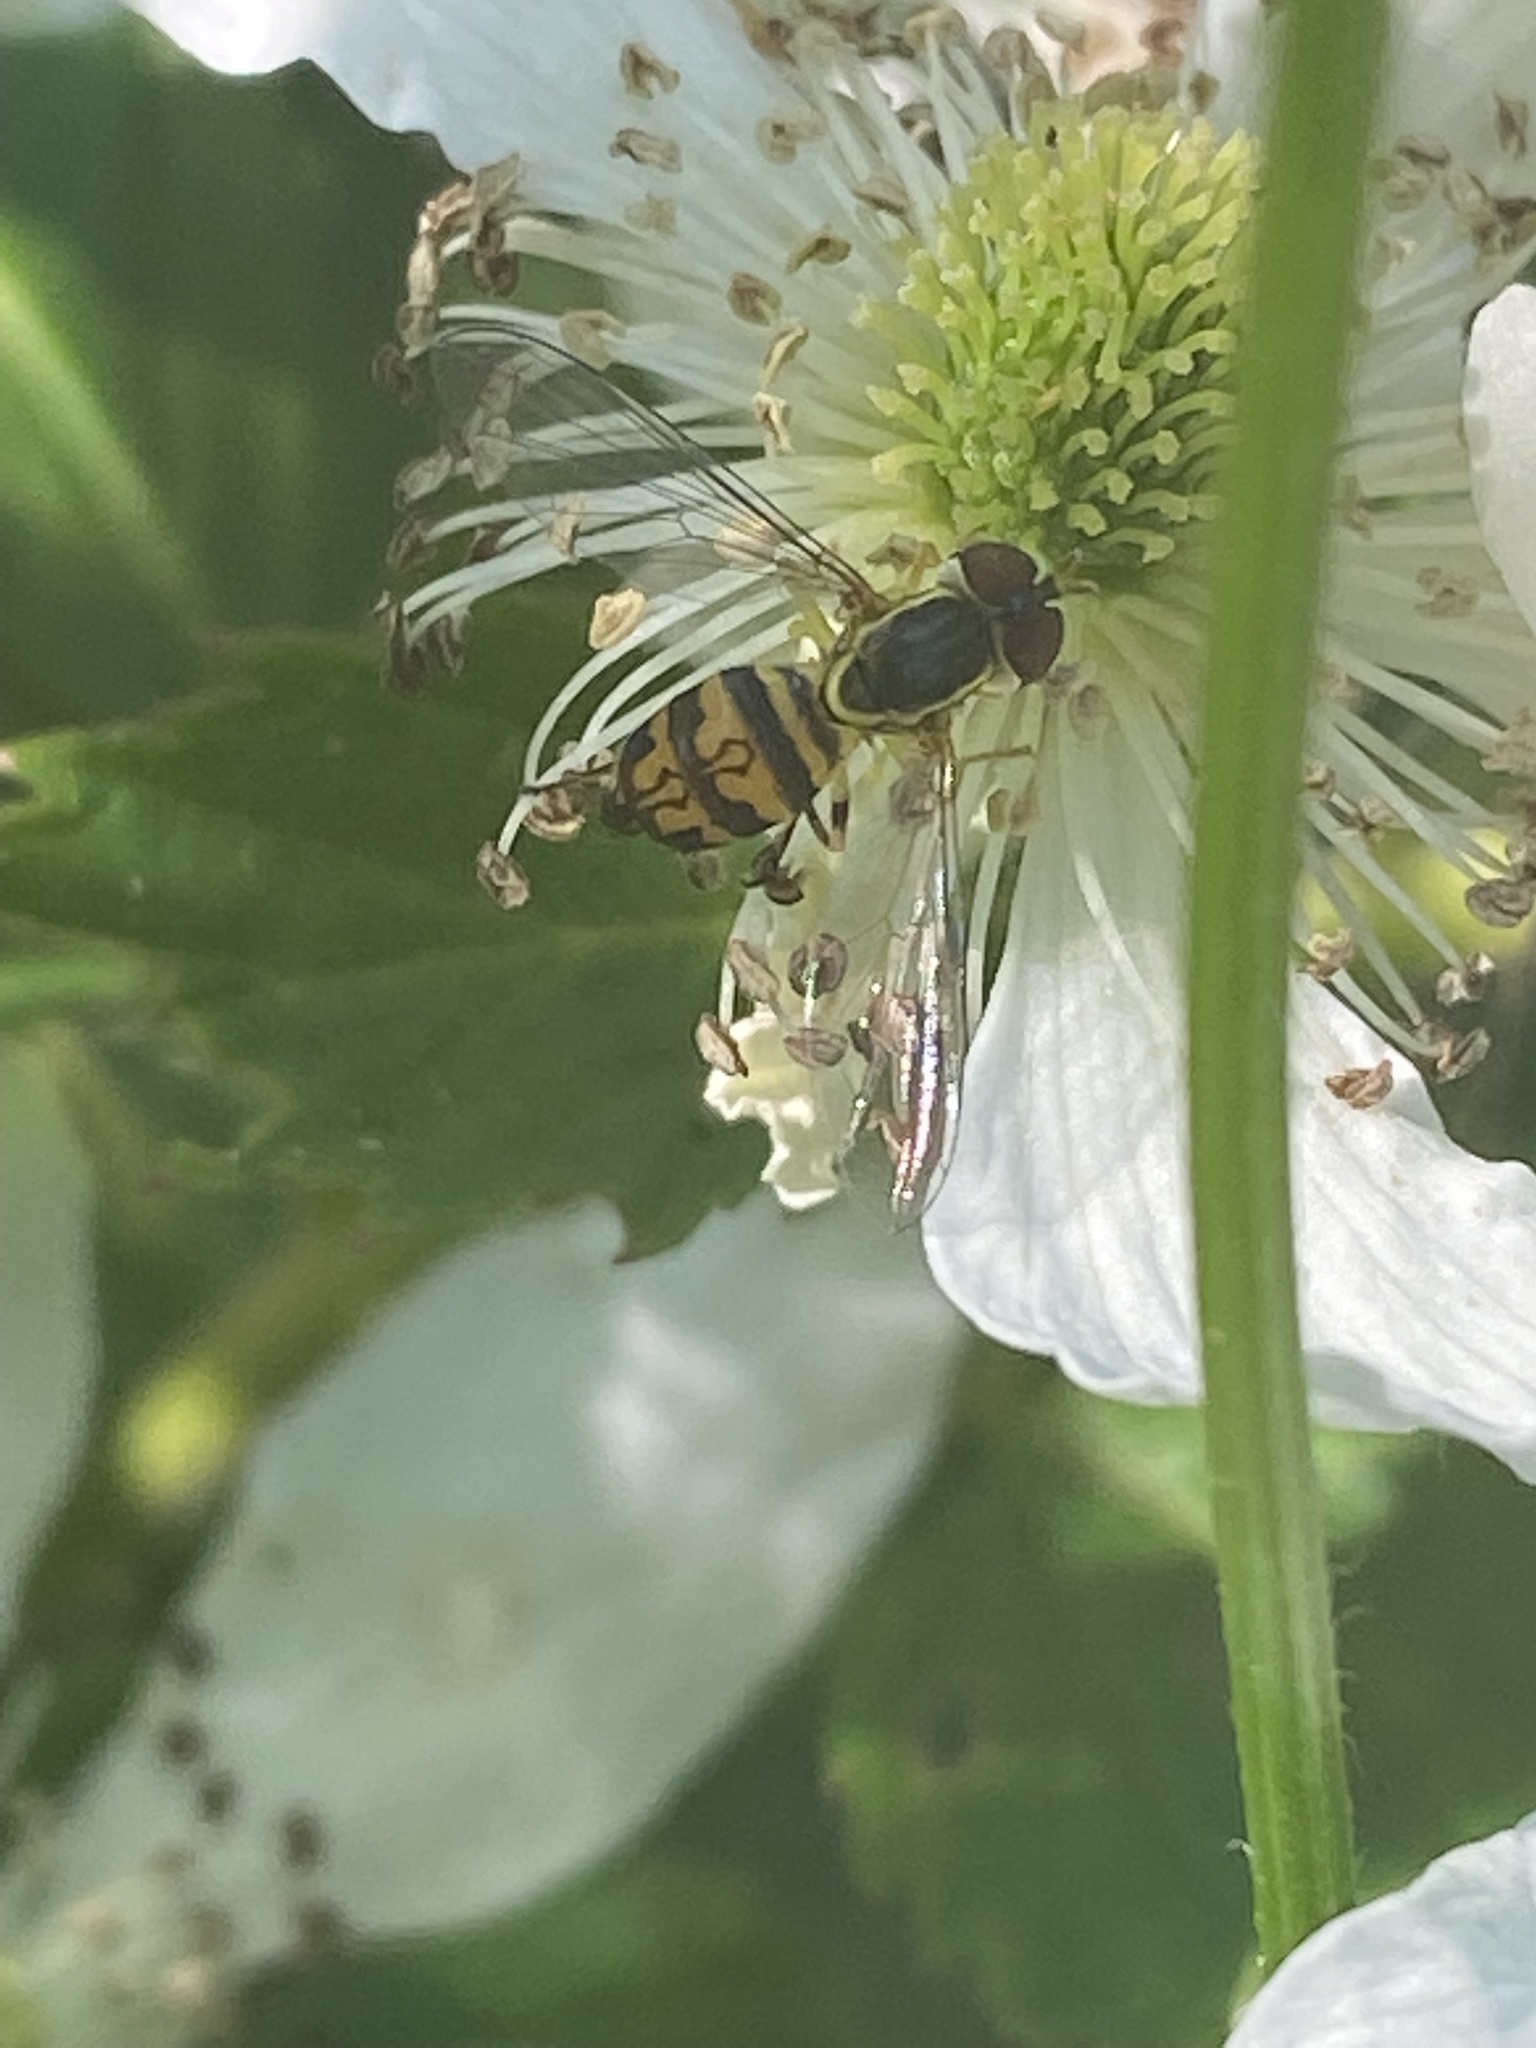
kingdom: Animalia
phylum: Arthropoda
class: Insecta
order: Diptera
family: Syrphidae
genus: Toxomerus
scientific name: Toxomerus geminatus
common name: Eastern calligrapher
